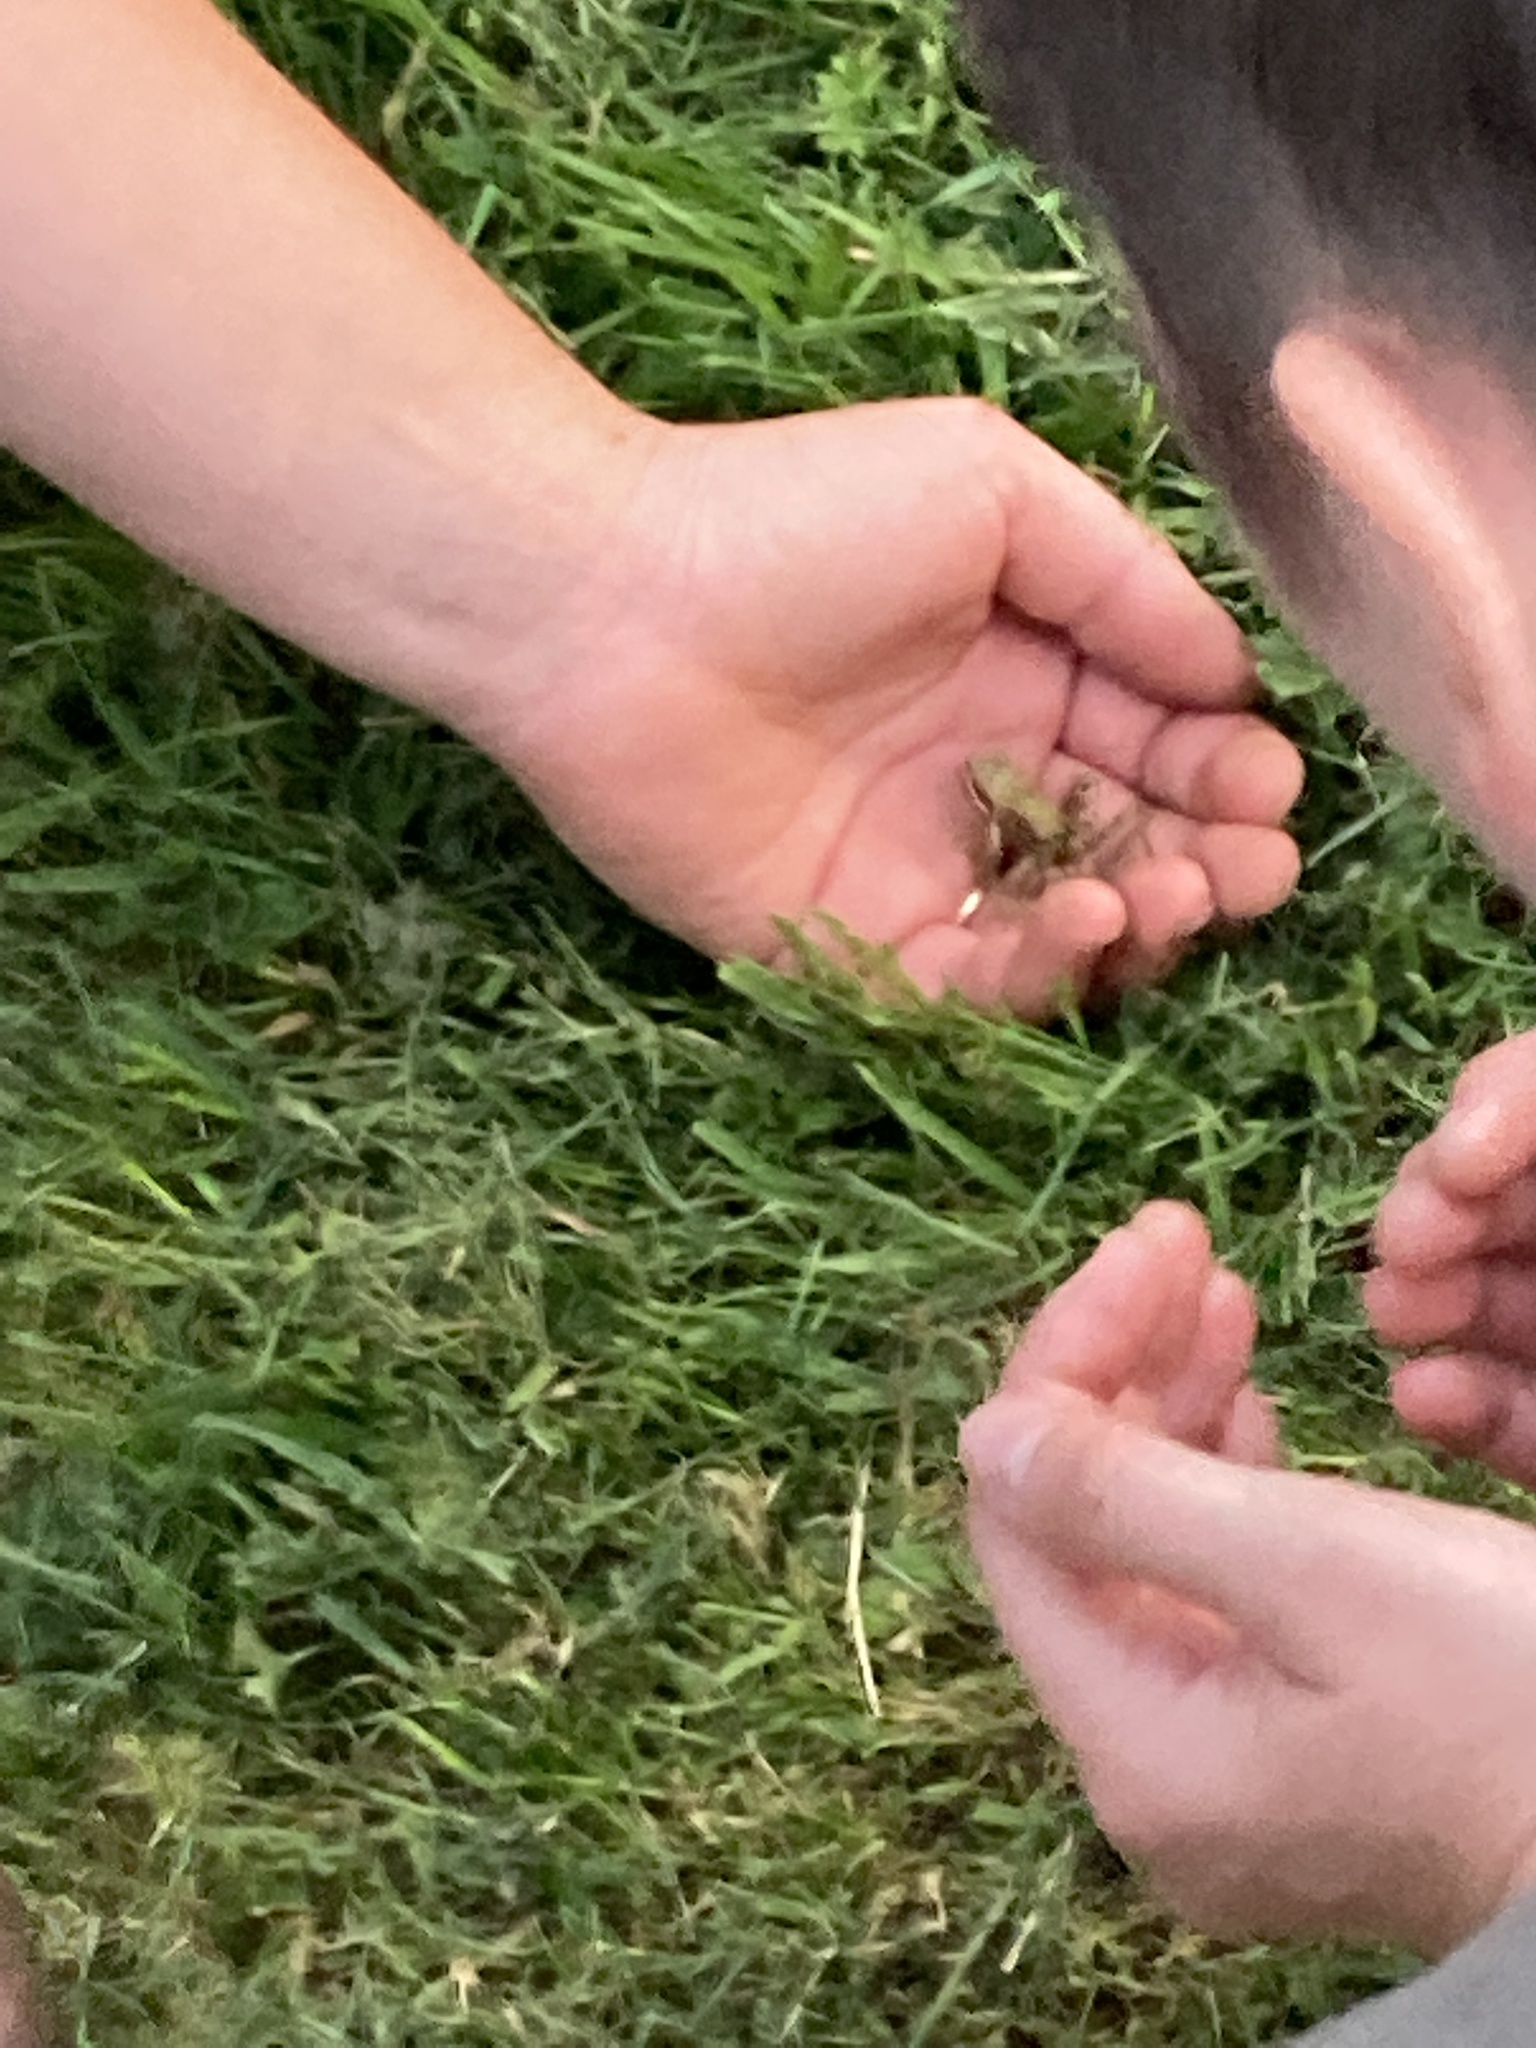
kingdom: Animalia
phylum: Chordata
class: Amphibia
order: Anura
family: Ranidae
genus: Rana
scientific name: Rana temporaria
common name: Common frog
